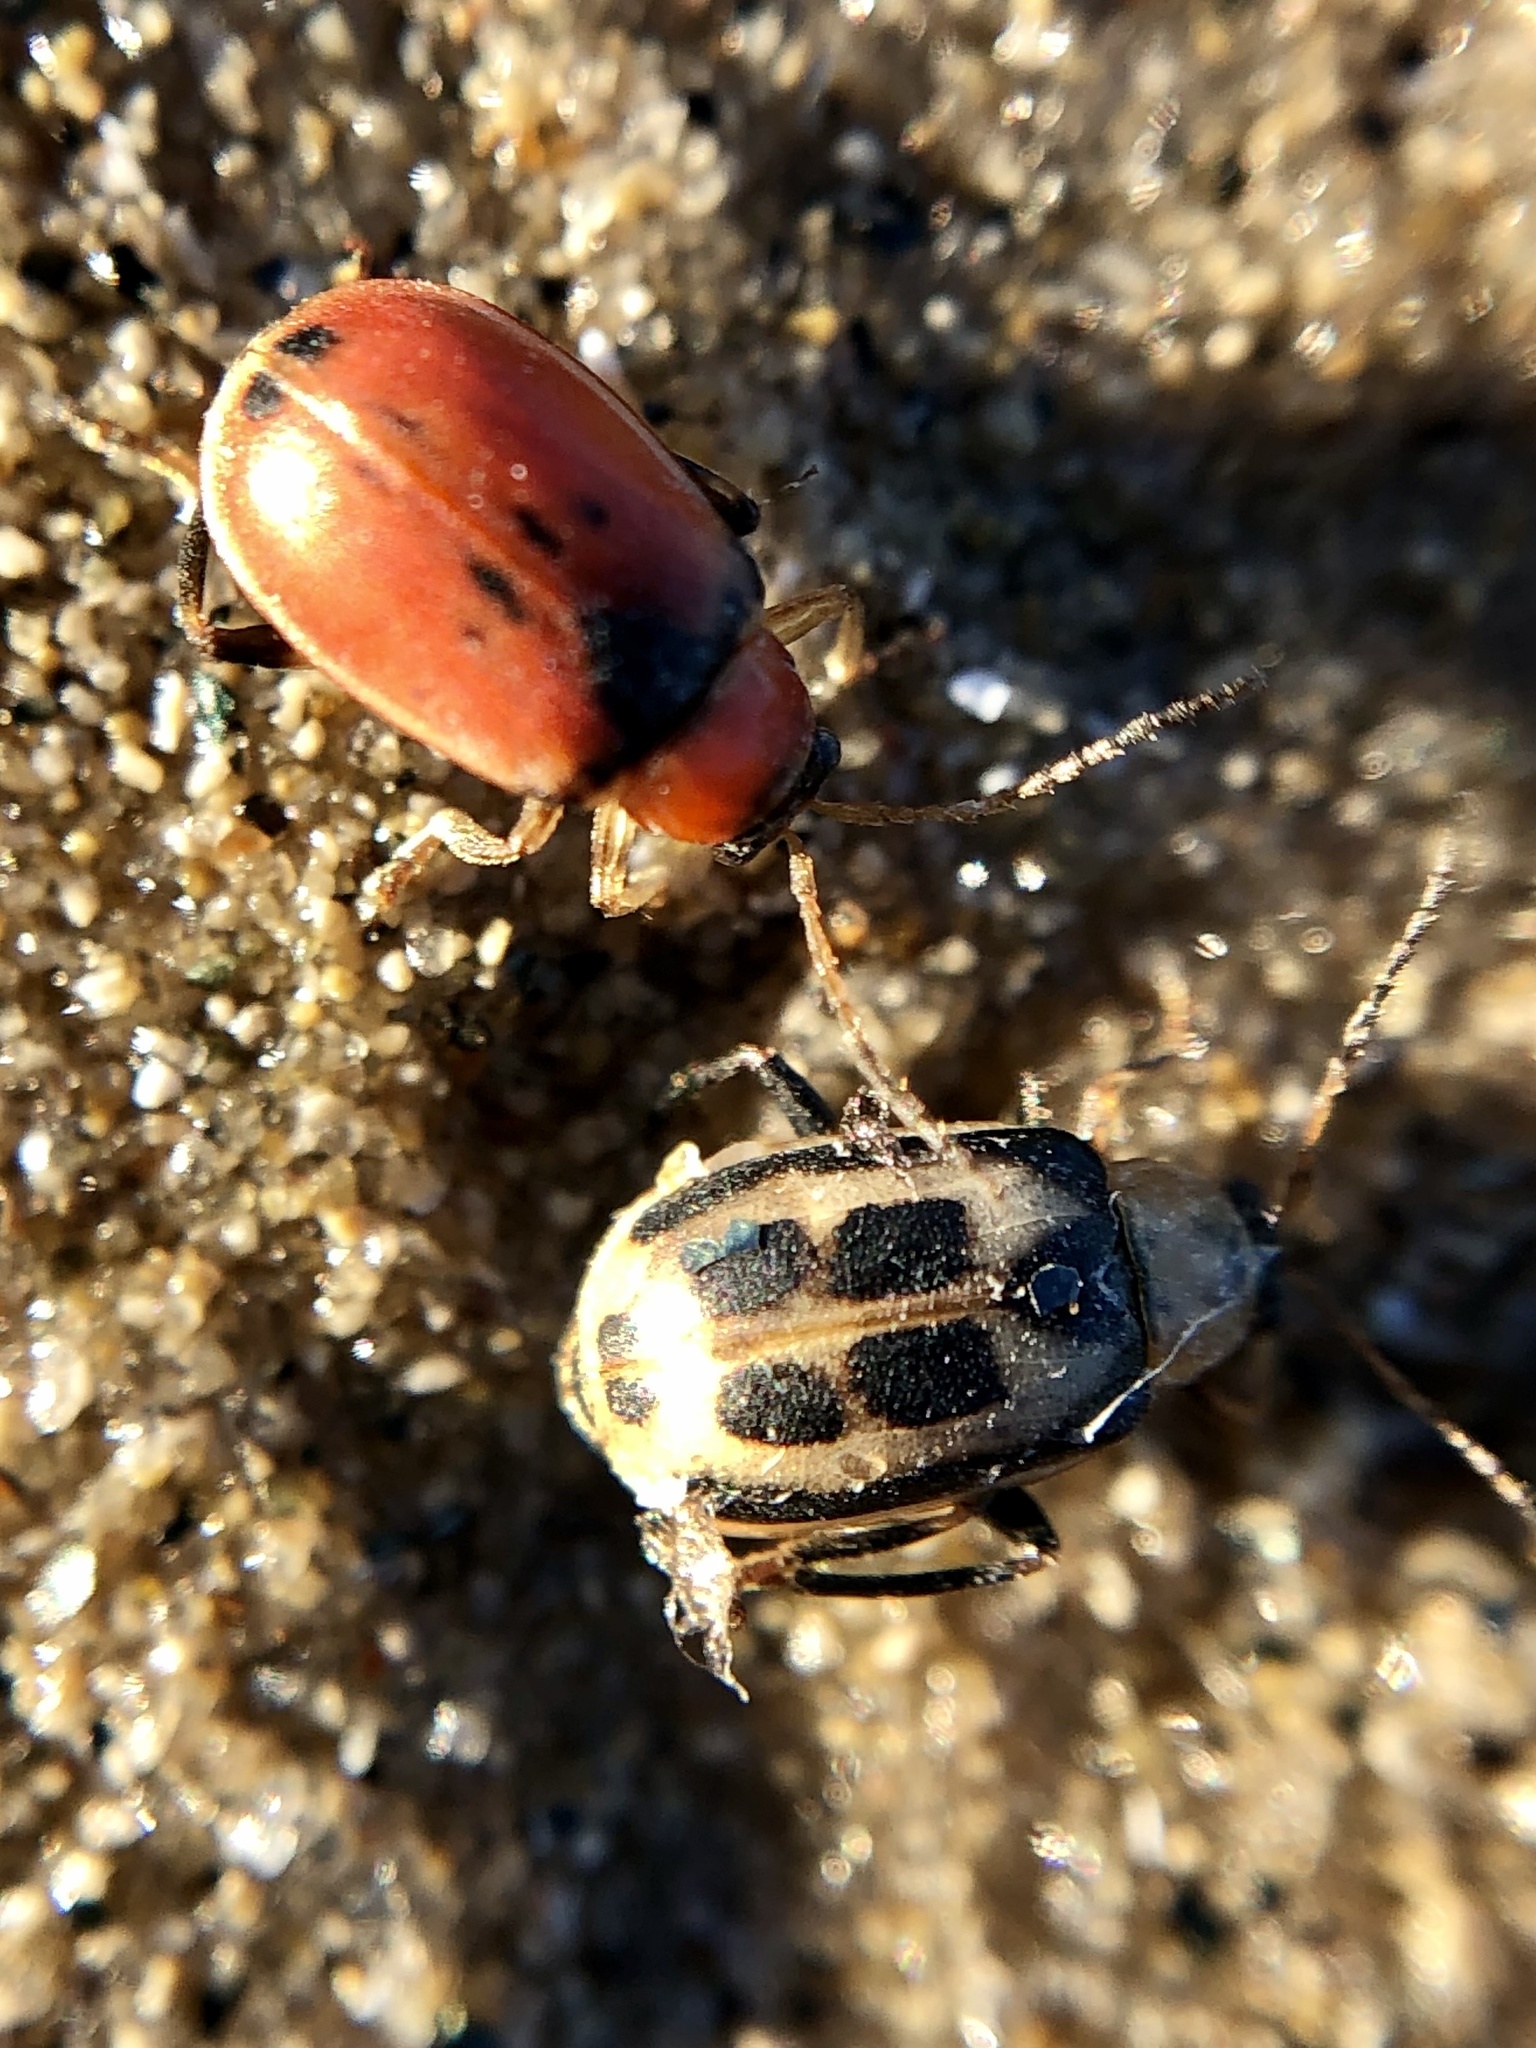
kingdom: Animalia
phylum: Arthropoda
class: Insecta
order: Coleoptera
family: Chrysomelidae
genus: Cerotoma
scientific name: Cerotoma trifurcata
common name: Bean leaf beetle
